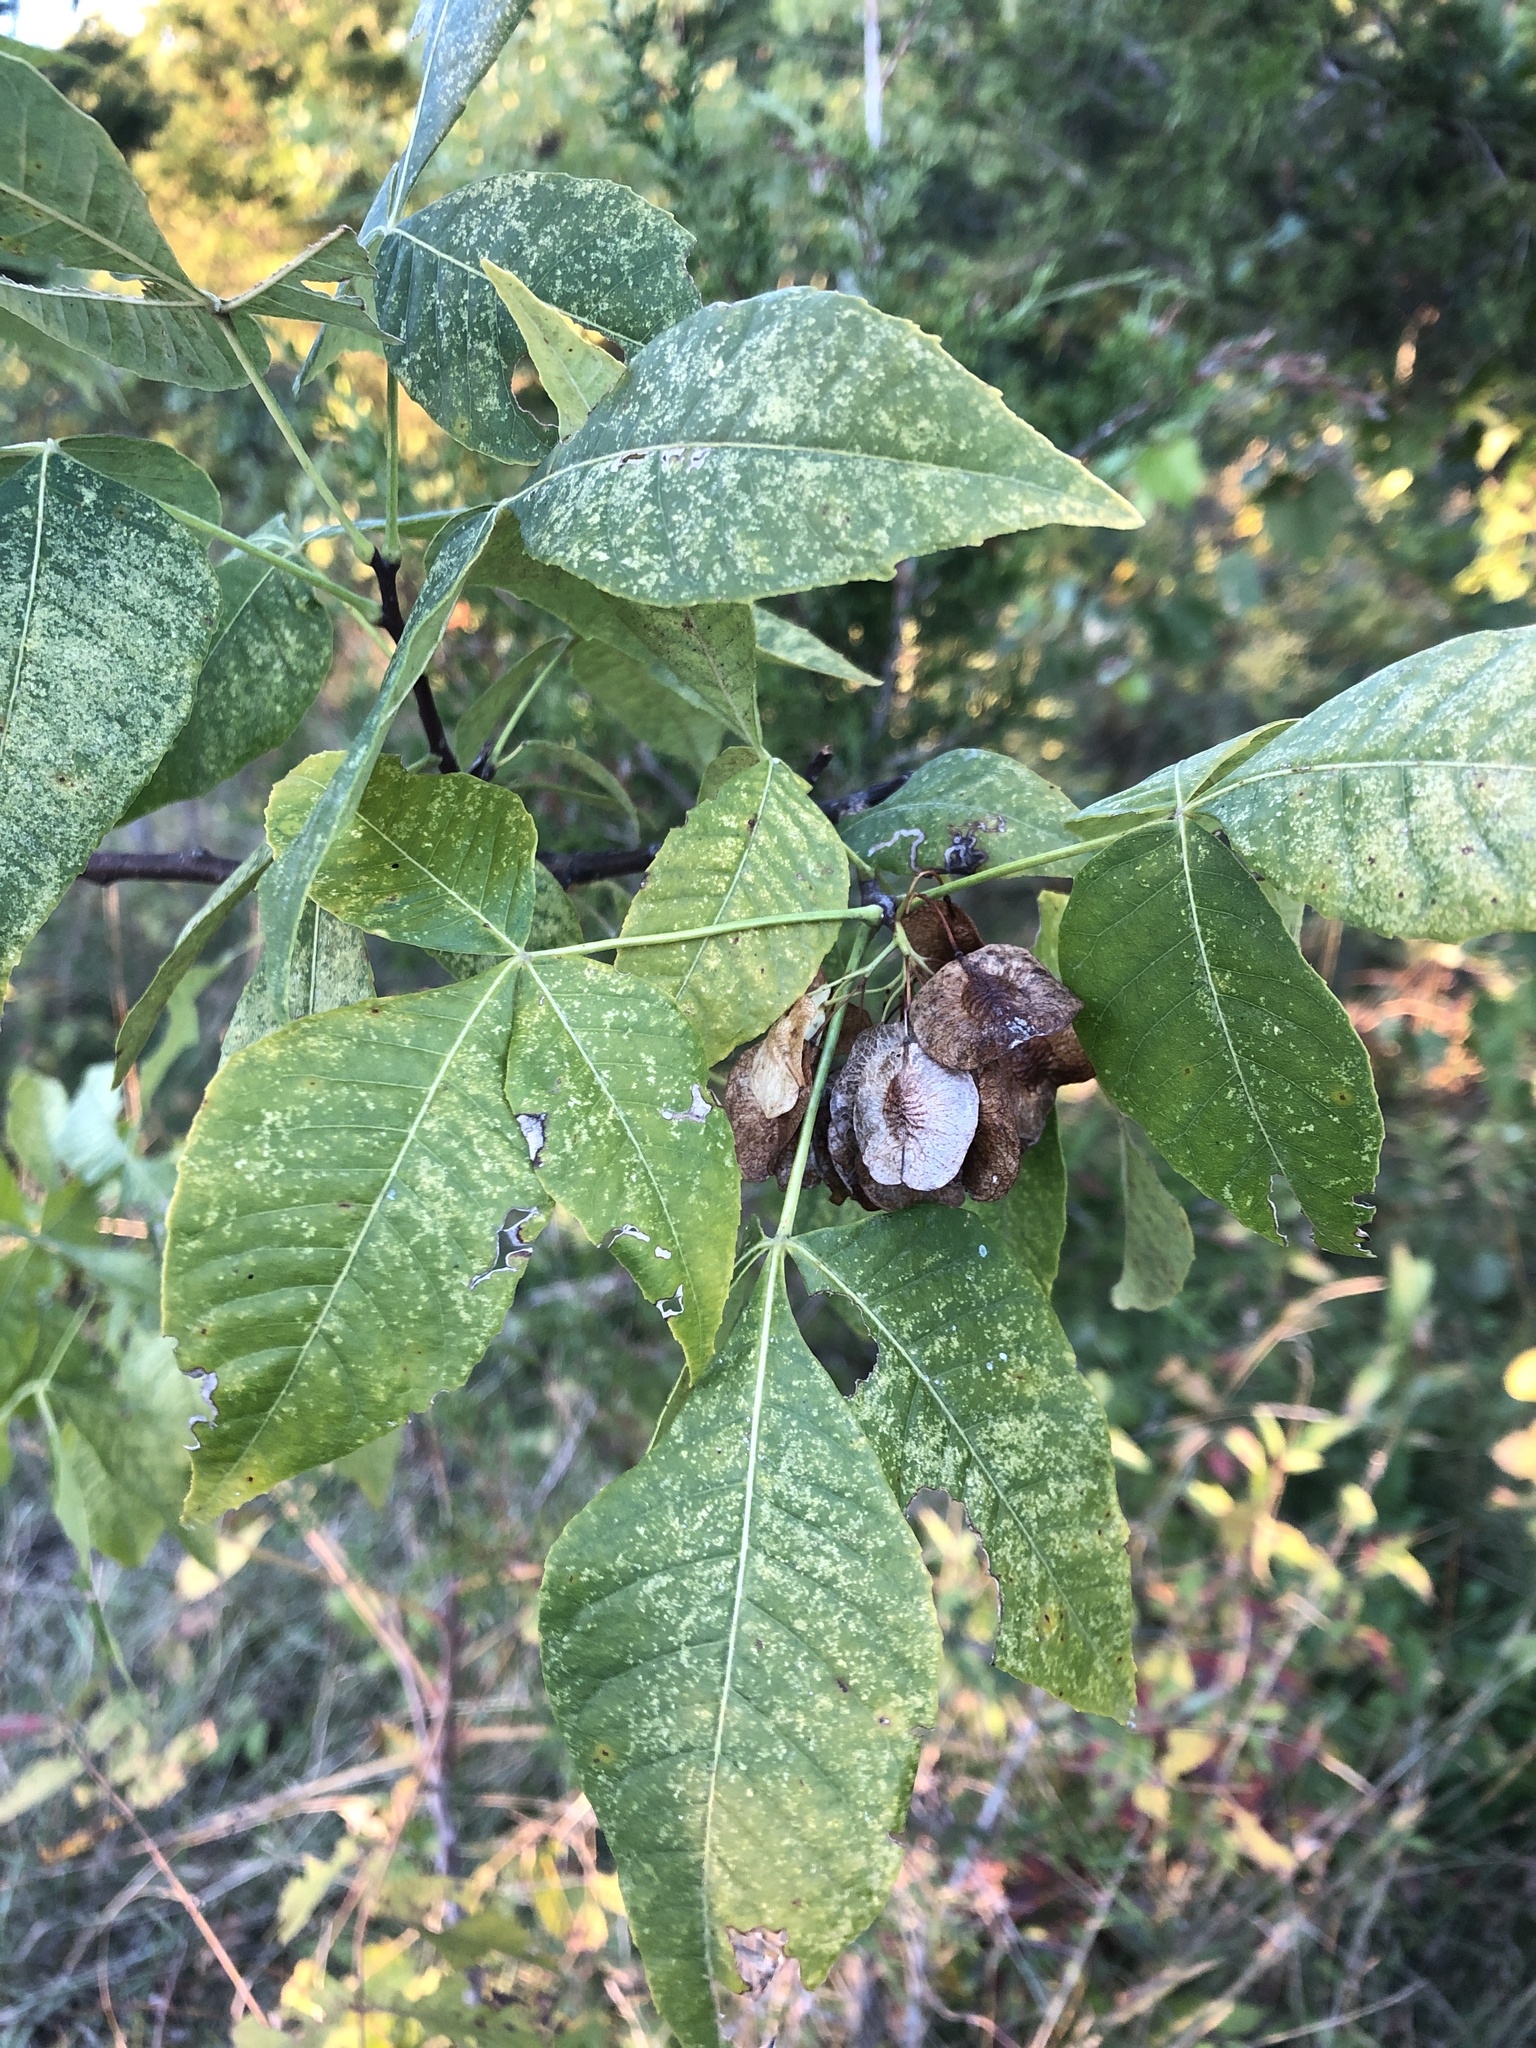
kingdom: Plantae
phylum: Tracheophyta
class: Magnoliopsida
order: Sapindales
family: Rutaceae
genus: Ptelea
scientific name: Ptelea trifoliata
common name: Common hop-tree
